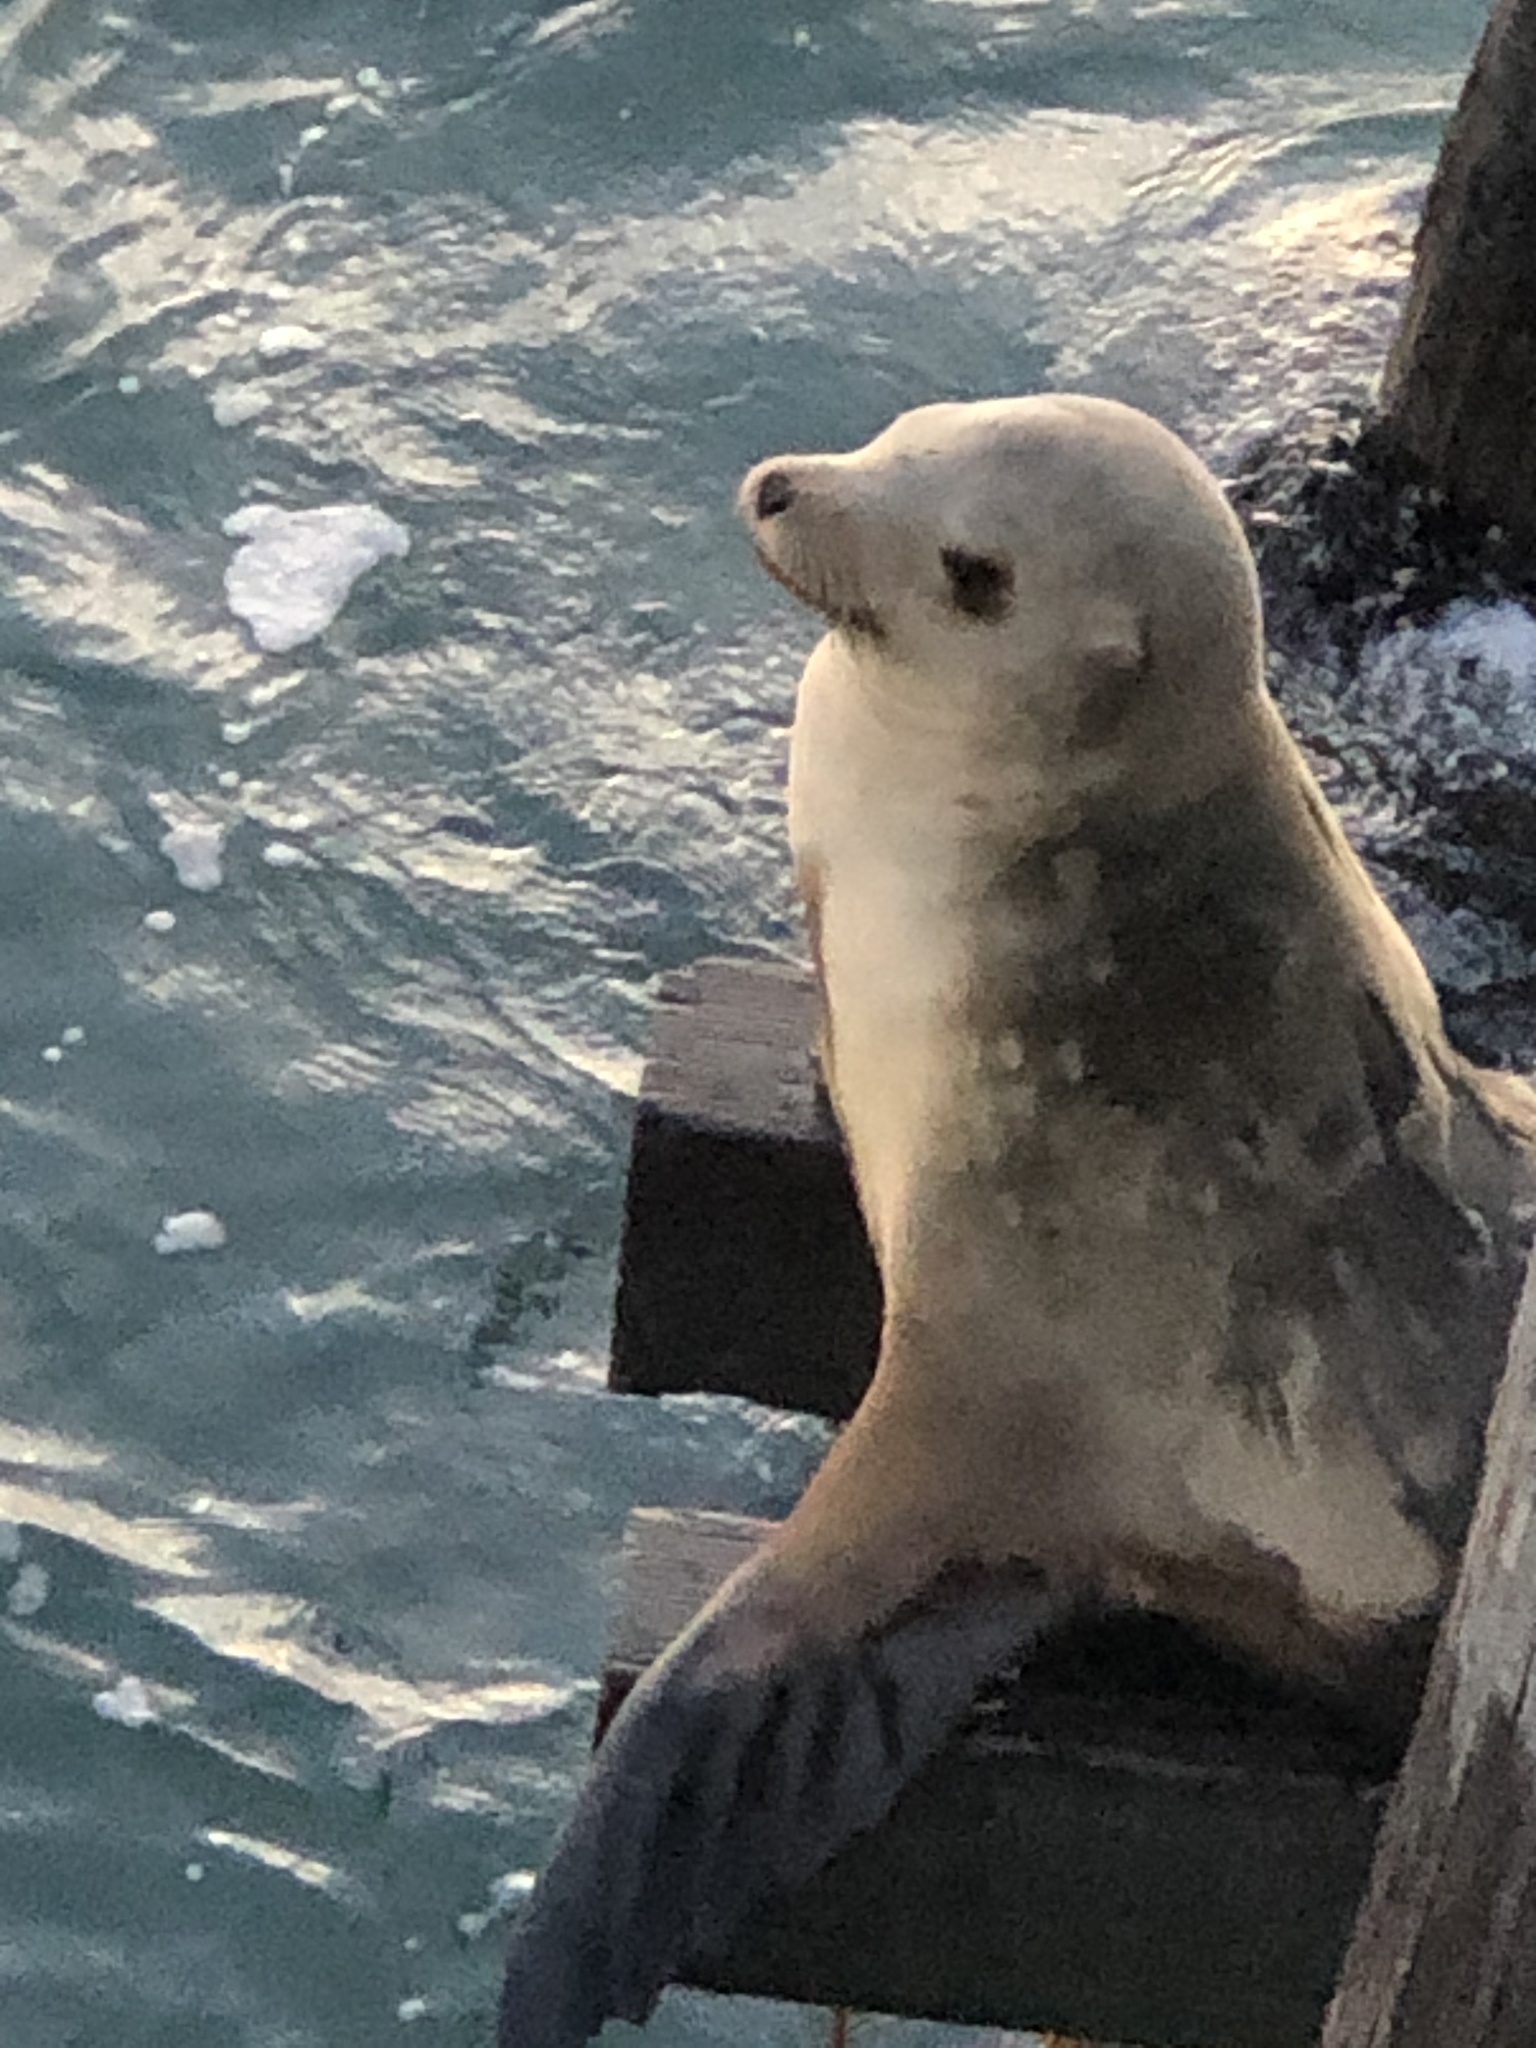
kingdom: Animalia
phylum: Chordata
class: Mammalia
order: Carnivora
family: Otariidae
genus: Zalophus
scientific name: Zalophus californianus
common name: California sea lion
